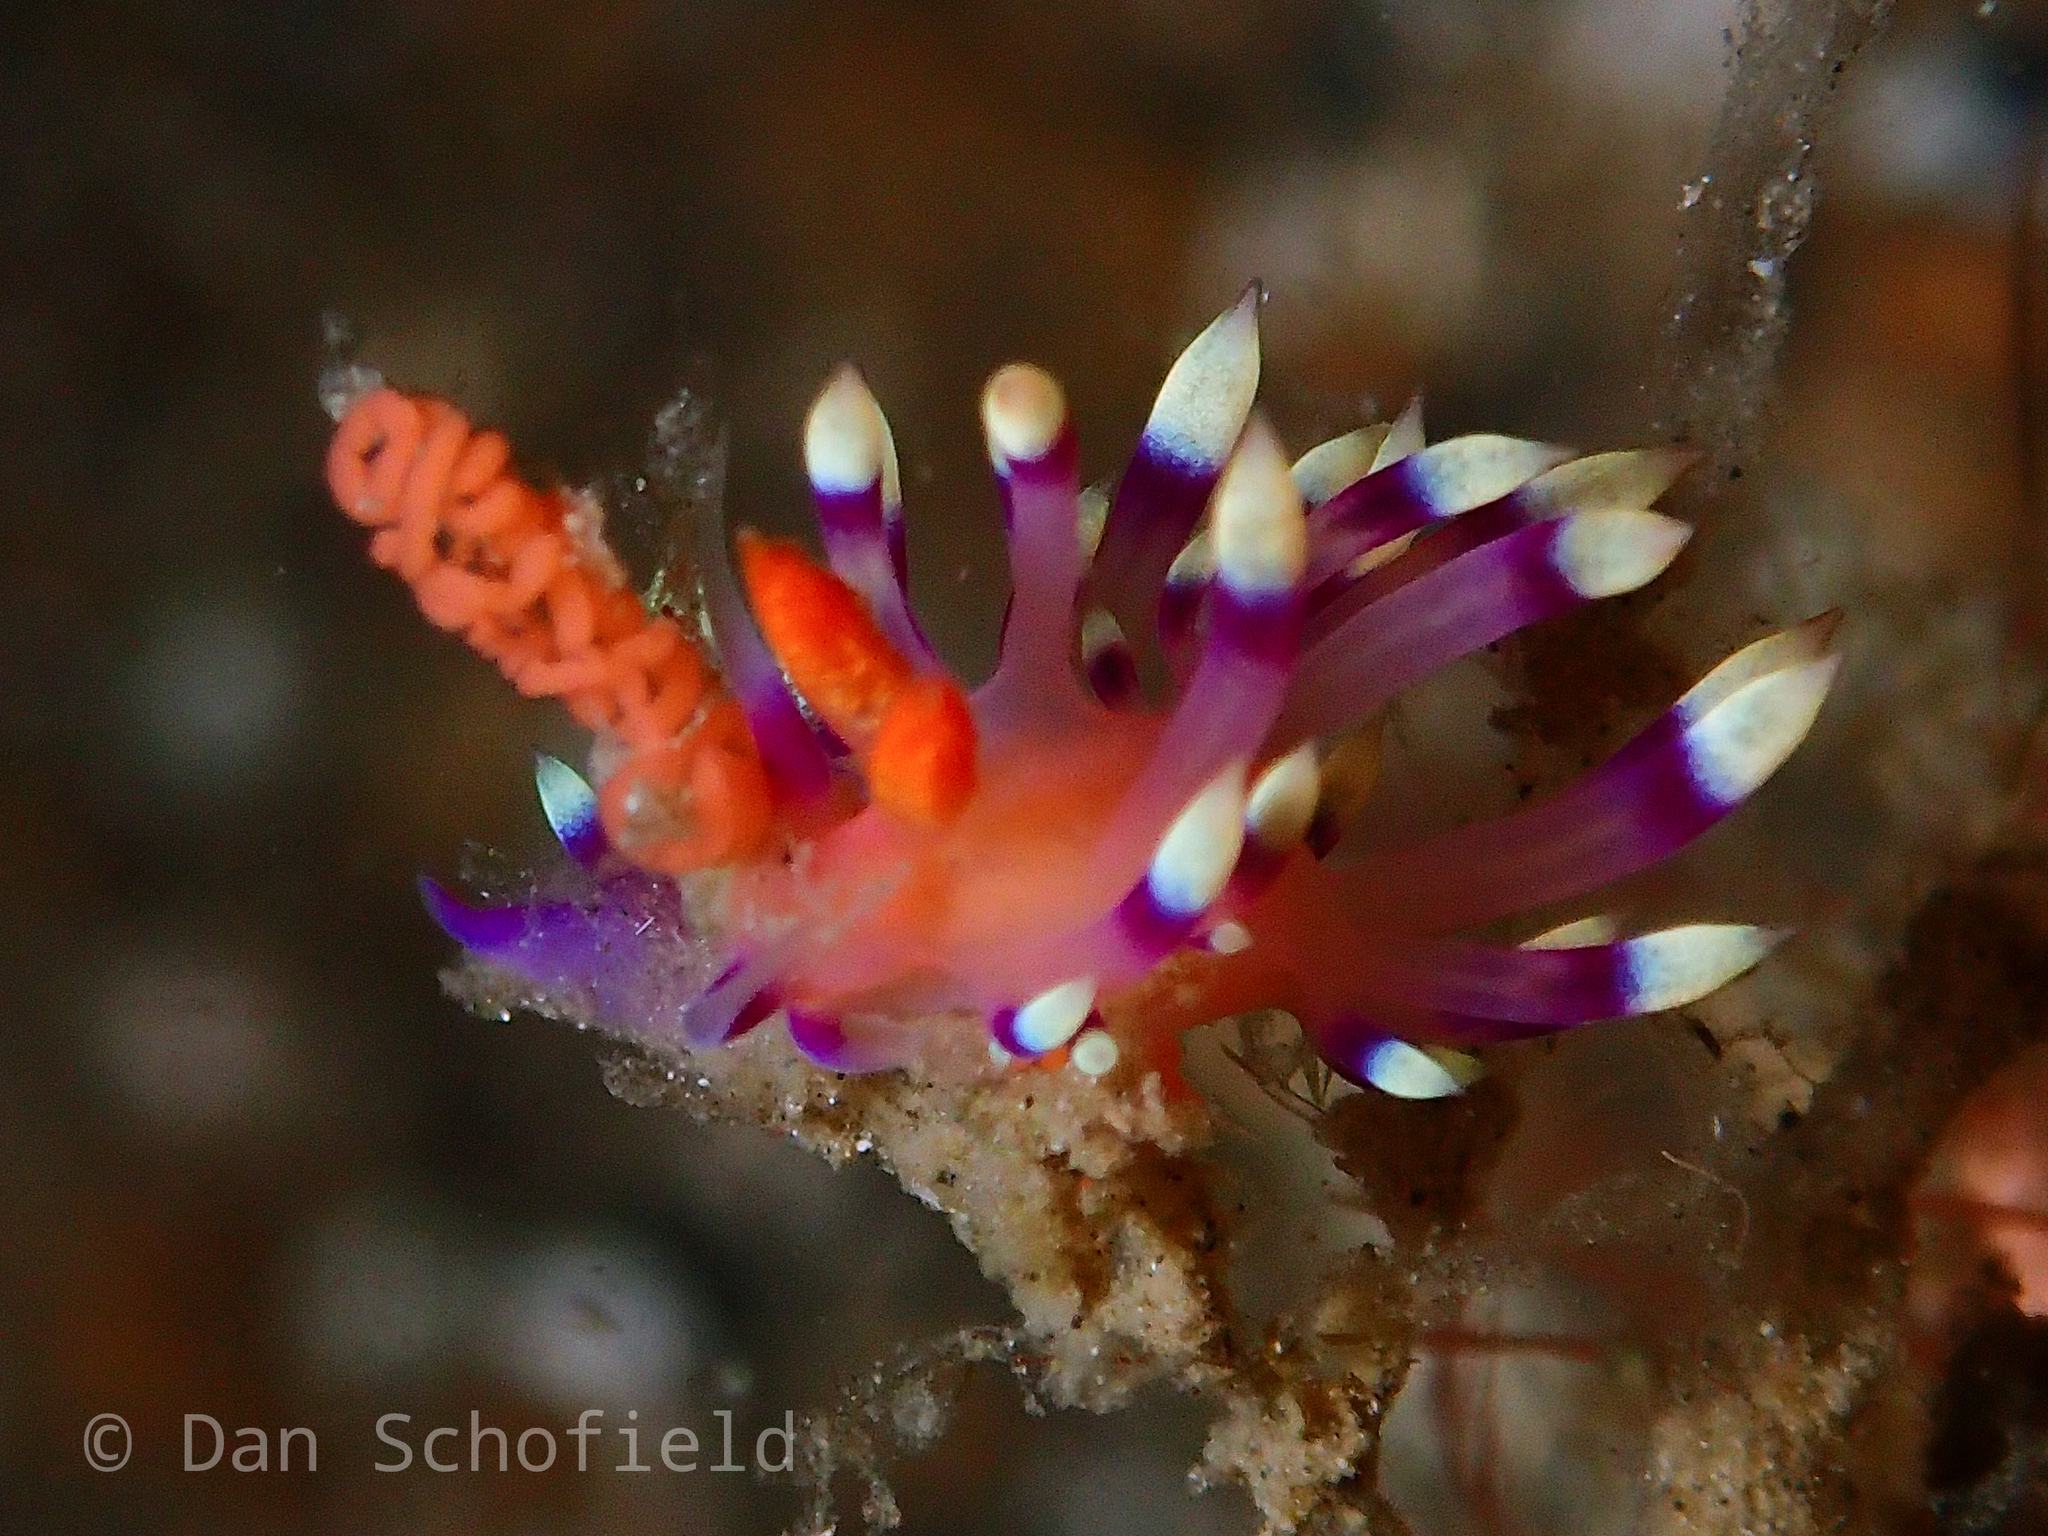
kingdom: Animalia
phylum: Mollusca
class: Gastropoda
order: Nudibranchia
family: Flabellinidae
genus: Coryphellina
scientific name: Coryphellina exoptata
